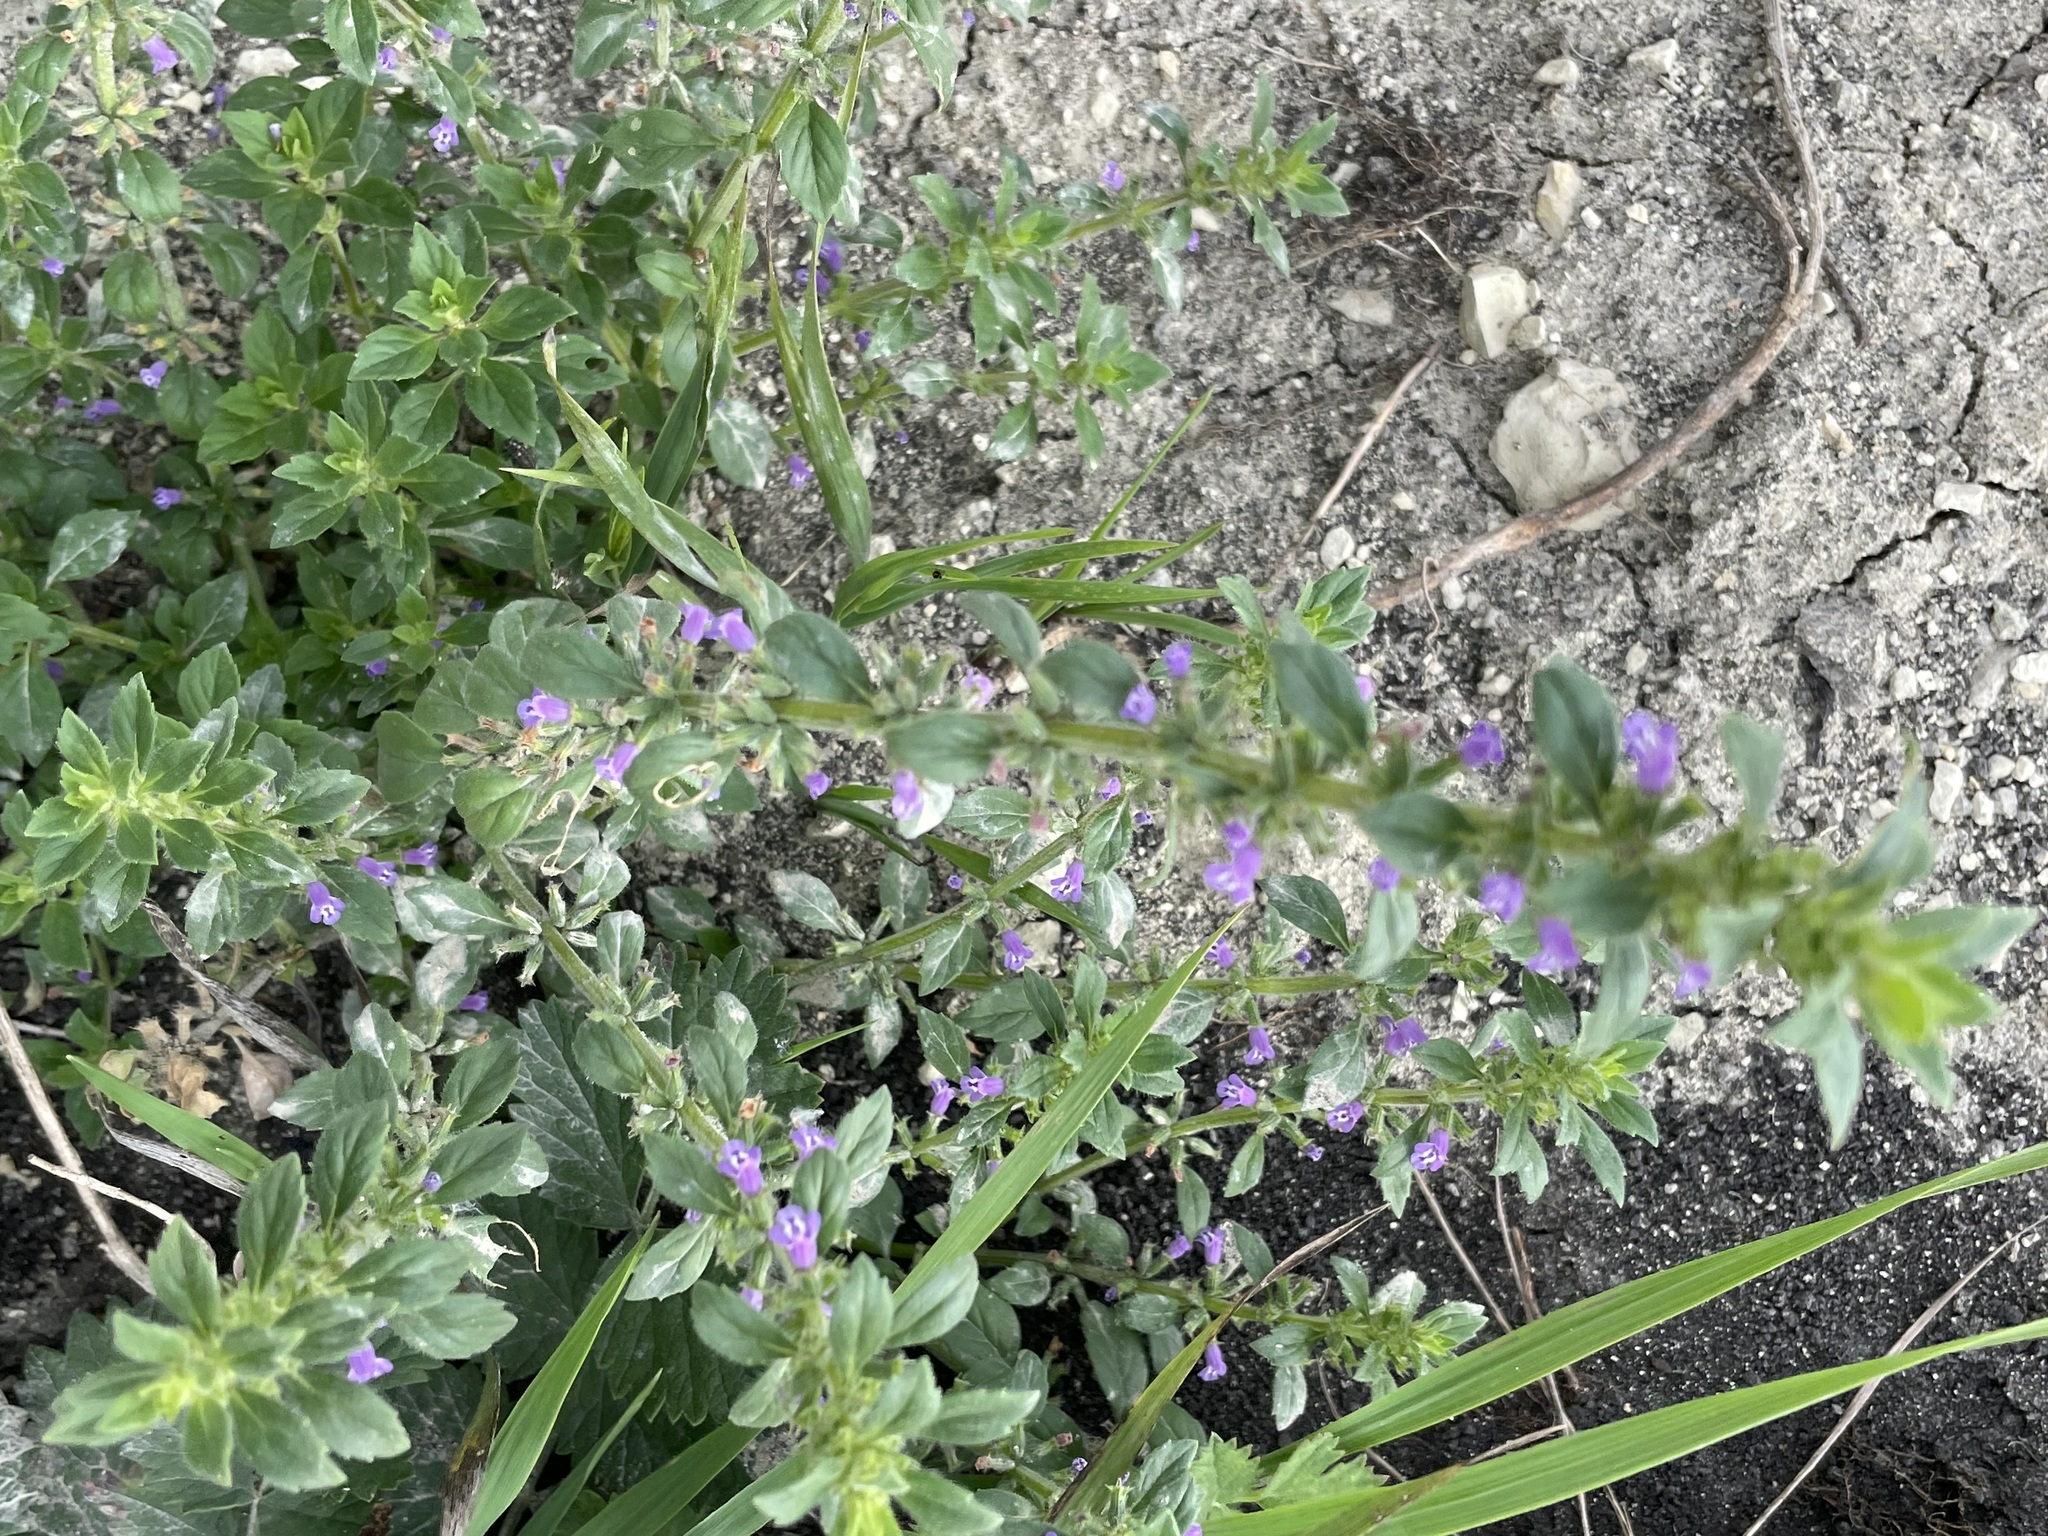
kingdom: Plantae
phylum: Tracheophyta
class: Magnoliopsida
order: Lamiales
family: Lamiaceae
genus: Clinopodium
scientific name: Clinopodium acinos
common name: Basil thyme
